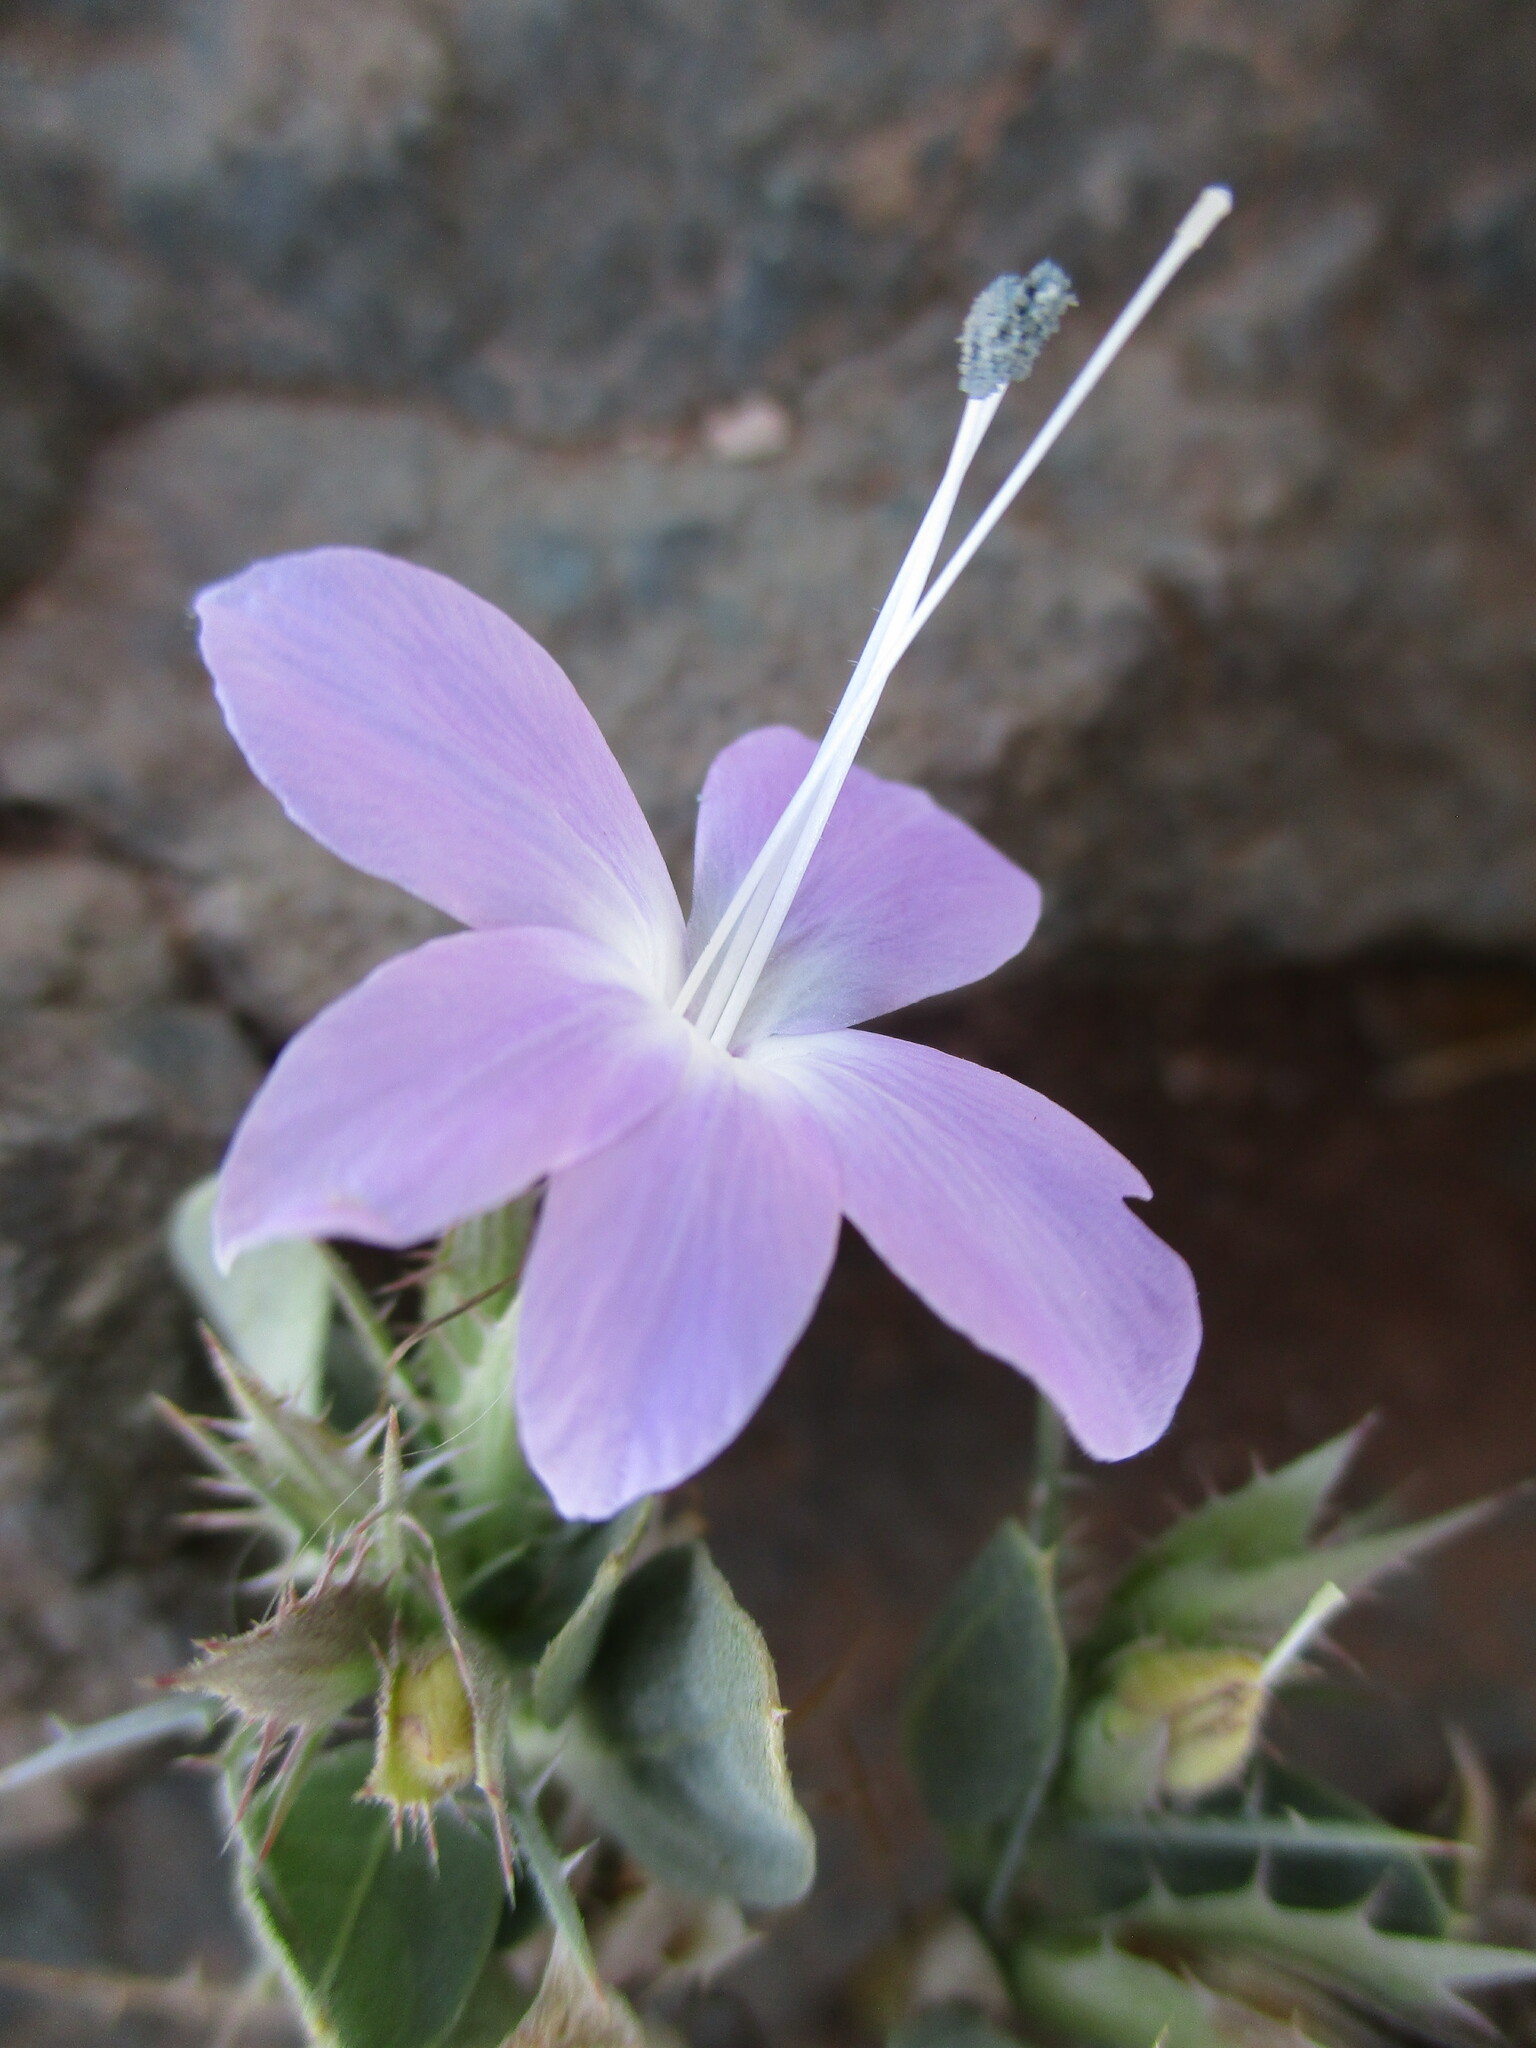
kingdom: Plantae
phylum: Tracheophyta
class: Magnoliopsida
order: Lamiales
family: Acanthaceae
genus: Barleria
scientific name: Barleria merxmuelleri
